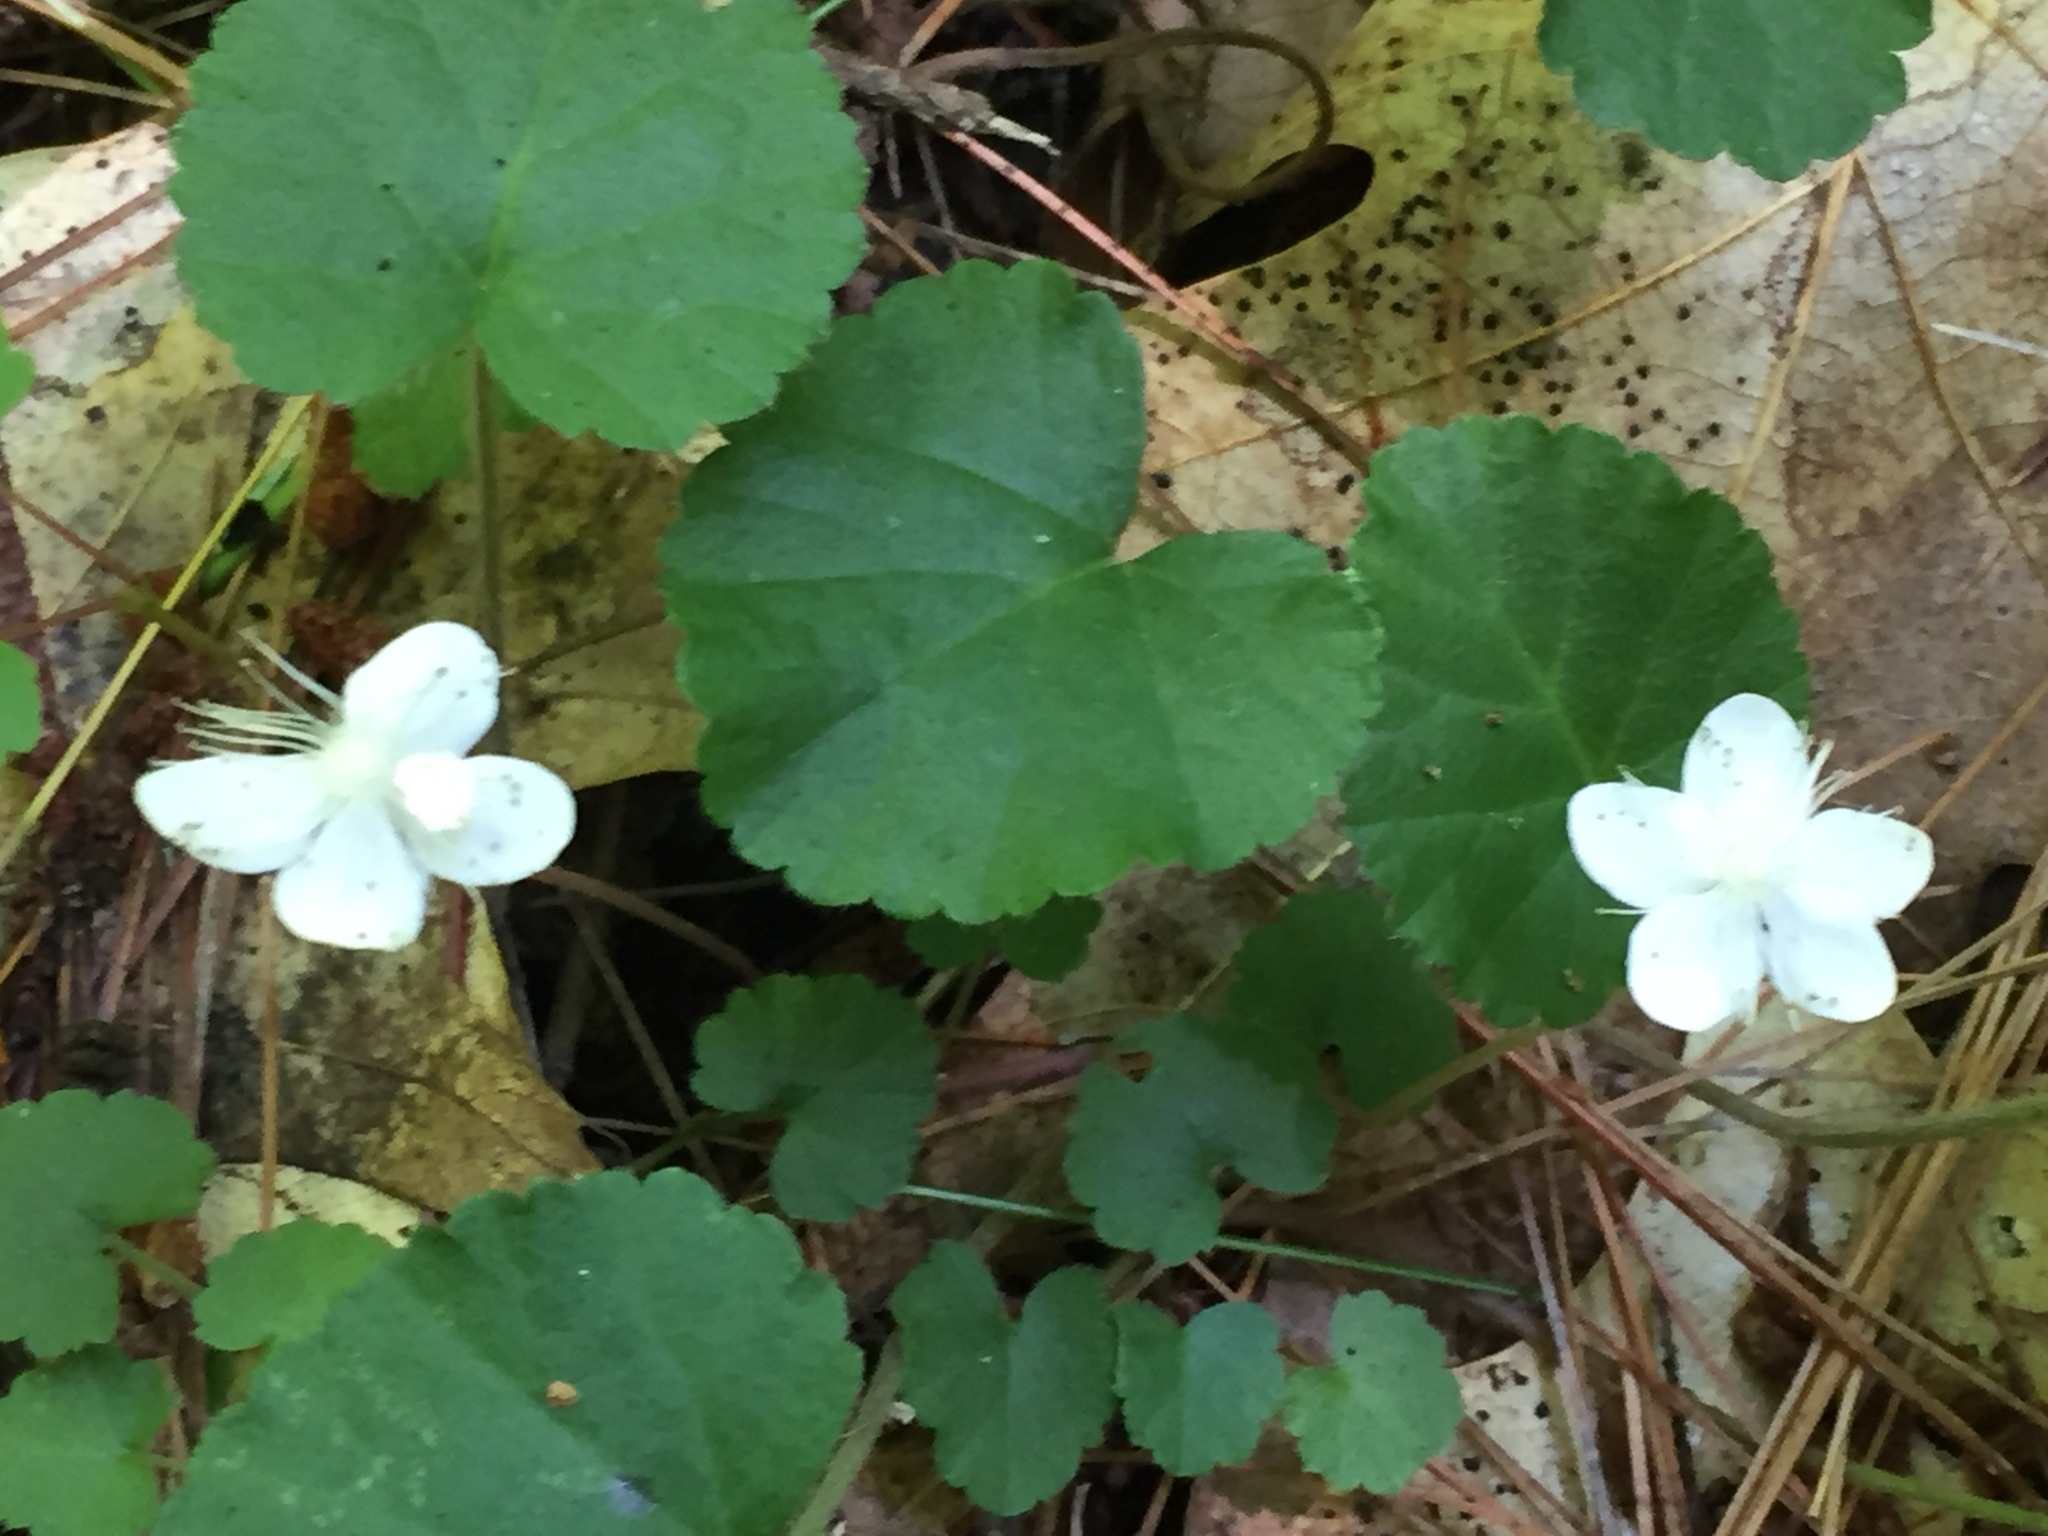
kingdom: Plantae
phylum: Tracheophyta
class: Magnoliopsida
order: Rosales
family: Rosaceae
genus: Dalibarda
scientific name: Dalibarda repens
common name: Dewdrop
